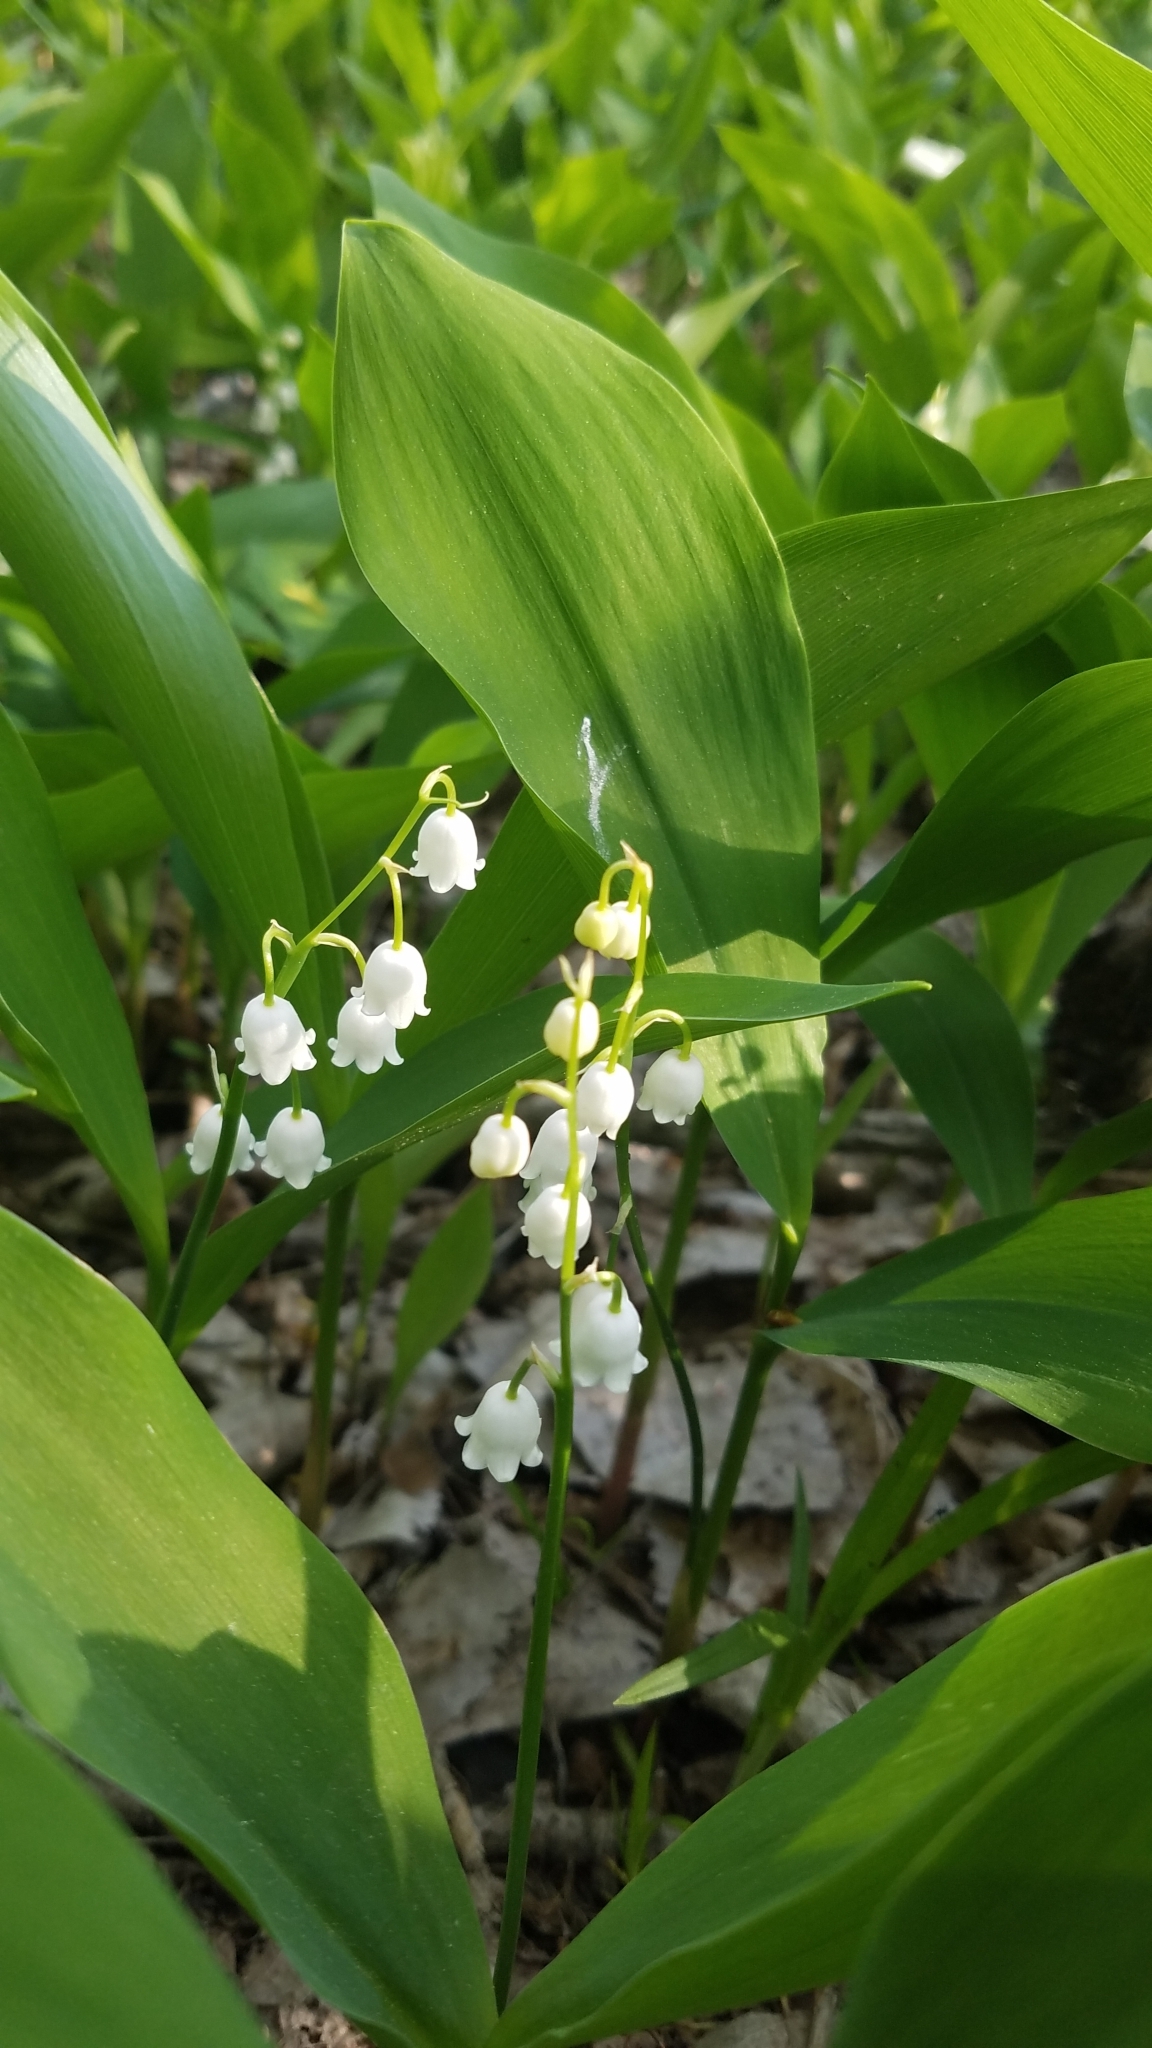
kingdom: Plantae
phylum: Tracheophyta
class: Liliopsida
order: Asparagales
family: Asparagaceae
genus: Convallaria
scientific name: Convallaria majalis
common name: Lily-of-the-valley
